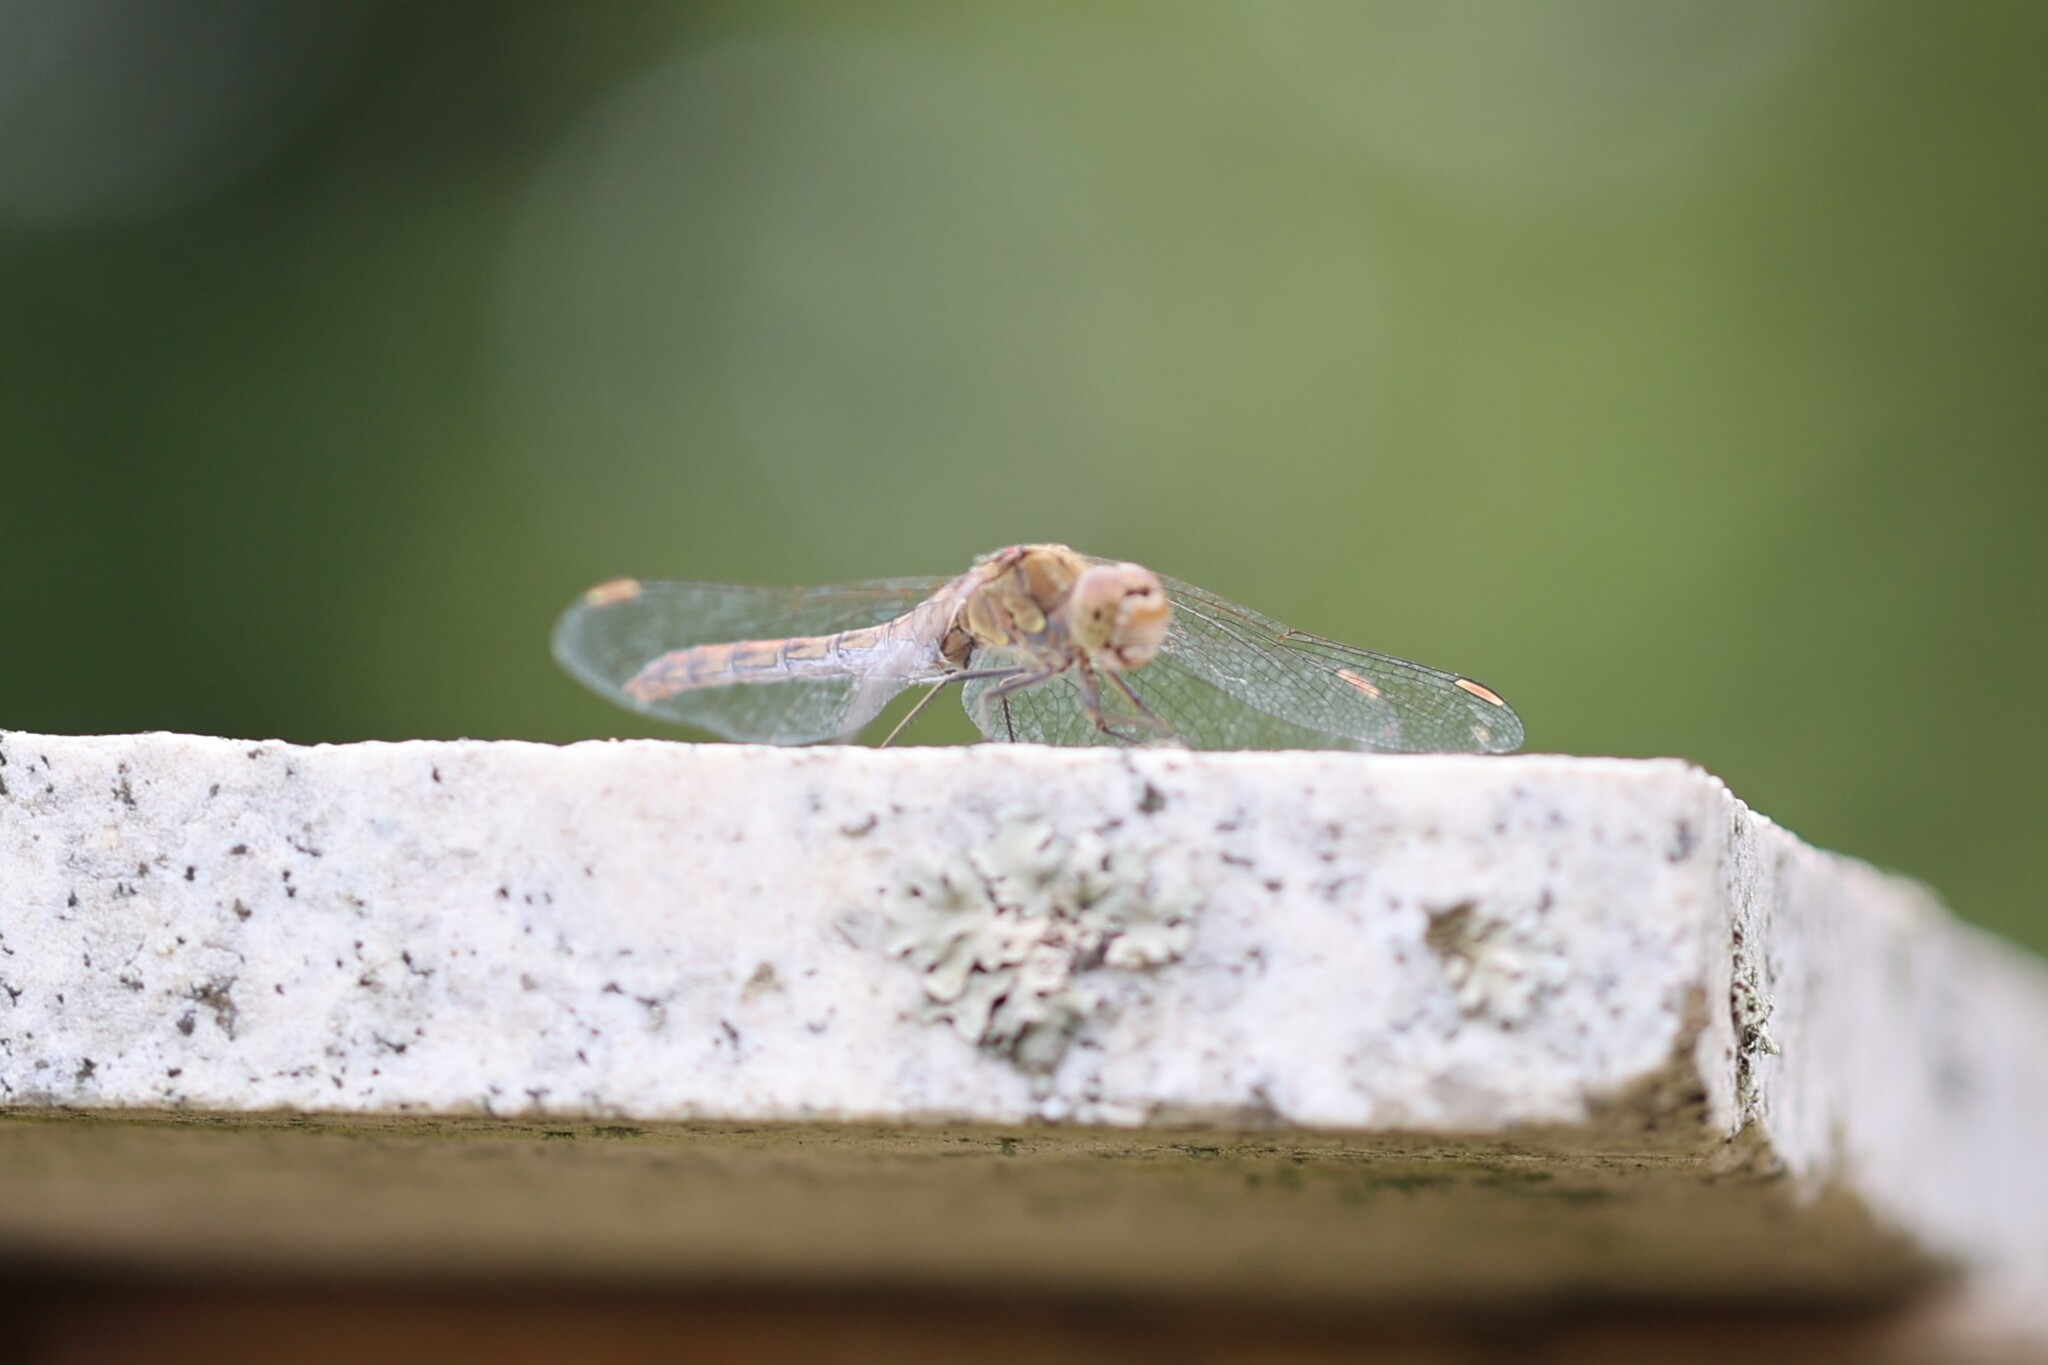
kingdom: Animalia
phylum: Arthropoda
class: Insecta
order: Odonata
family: Libellulidae
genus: Sympetrum
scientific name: Sympetrum striolatum
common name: Common darter
